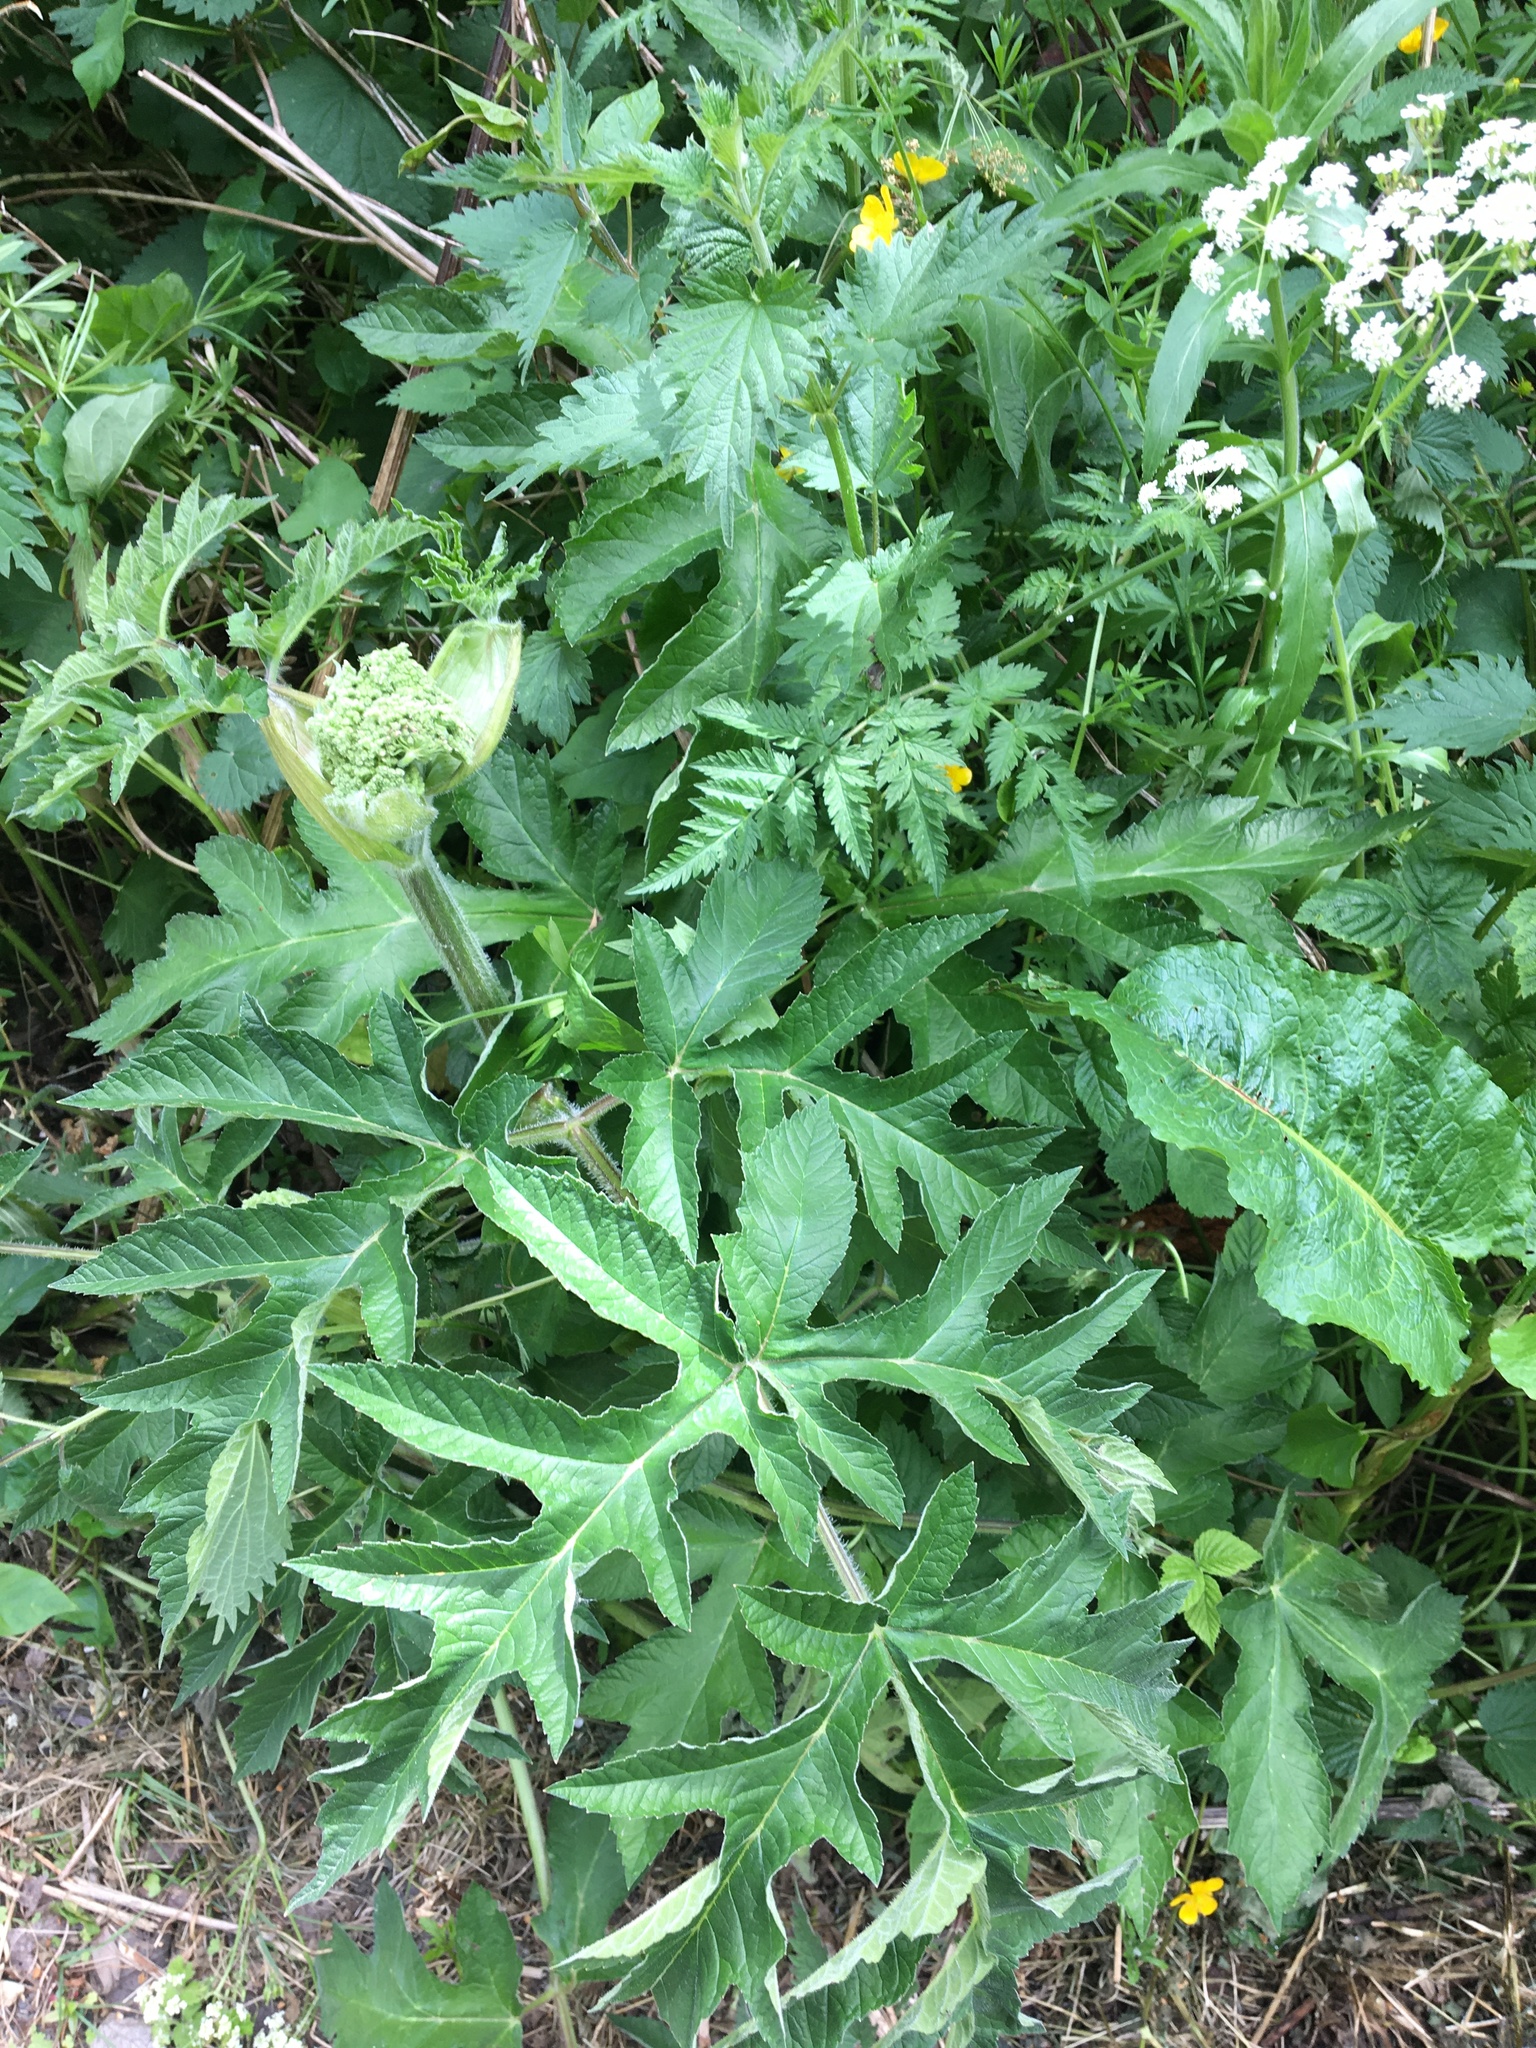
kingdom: Plantae
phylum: Tracheophyta
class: Magnoliopsida
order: Apiales
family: Apiaceae
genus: Heracleum
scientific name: Heracleum sphondylium
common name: Hogweed
